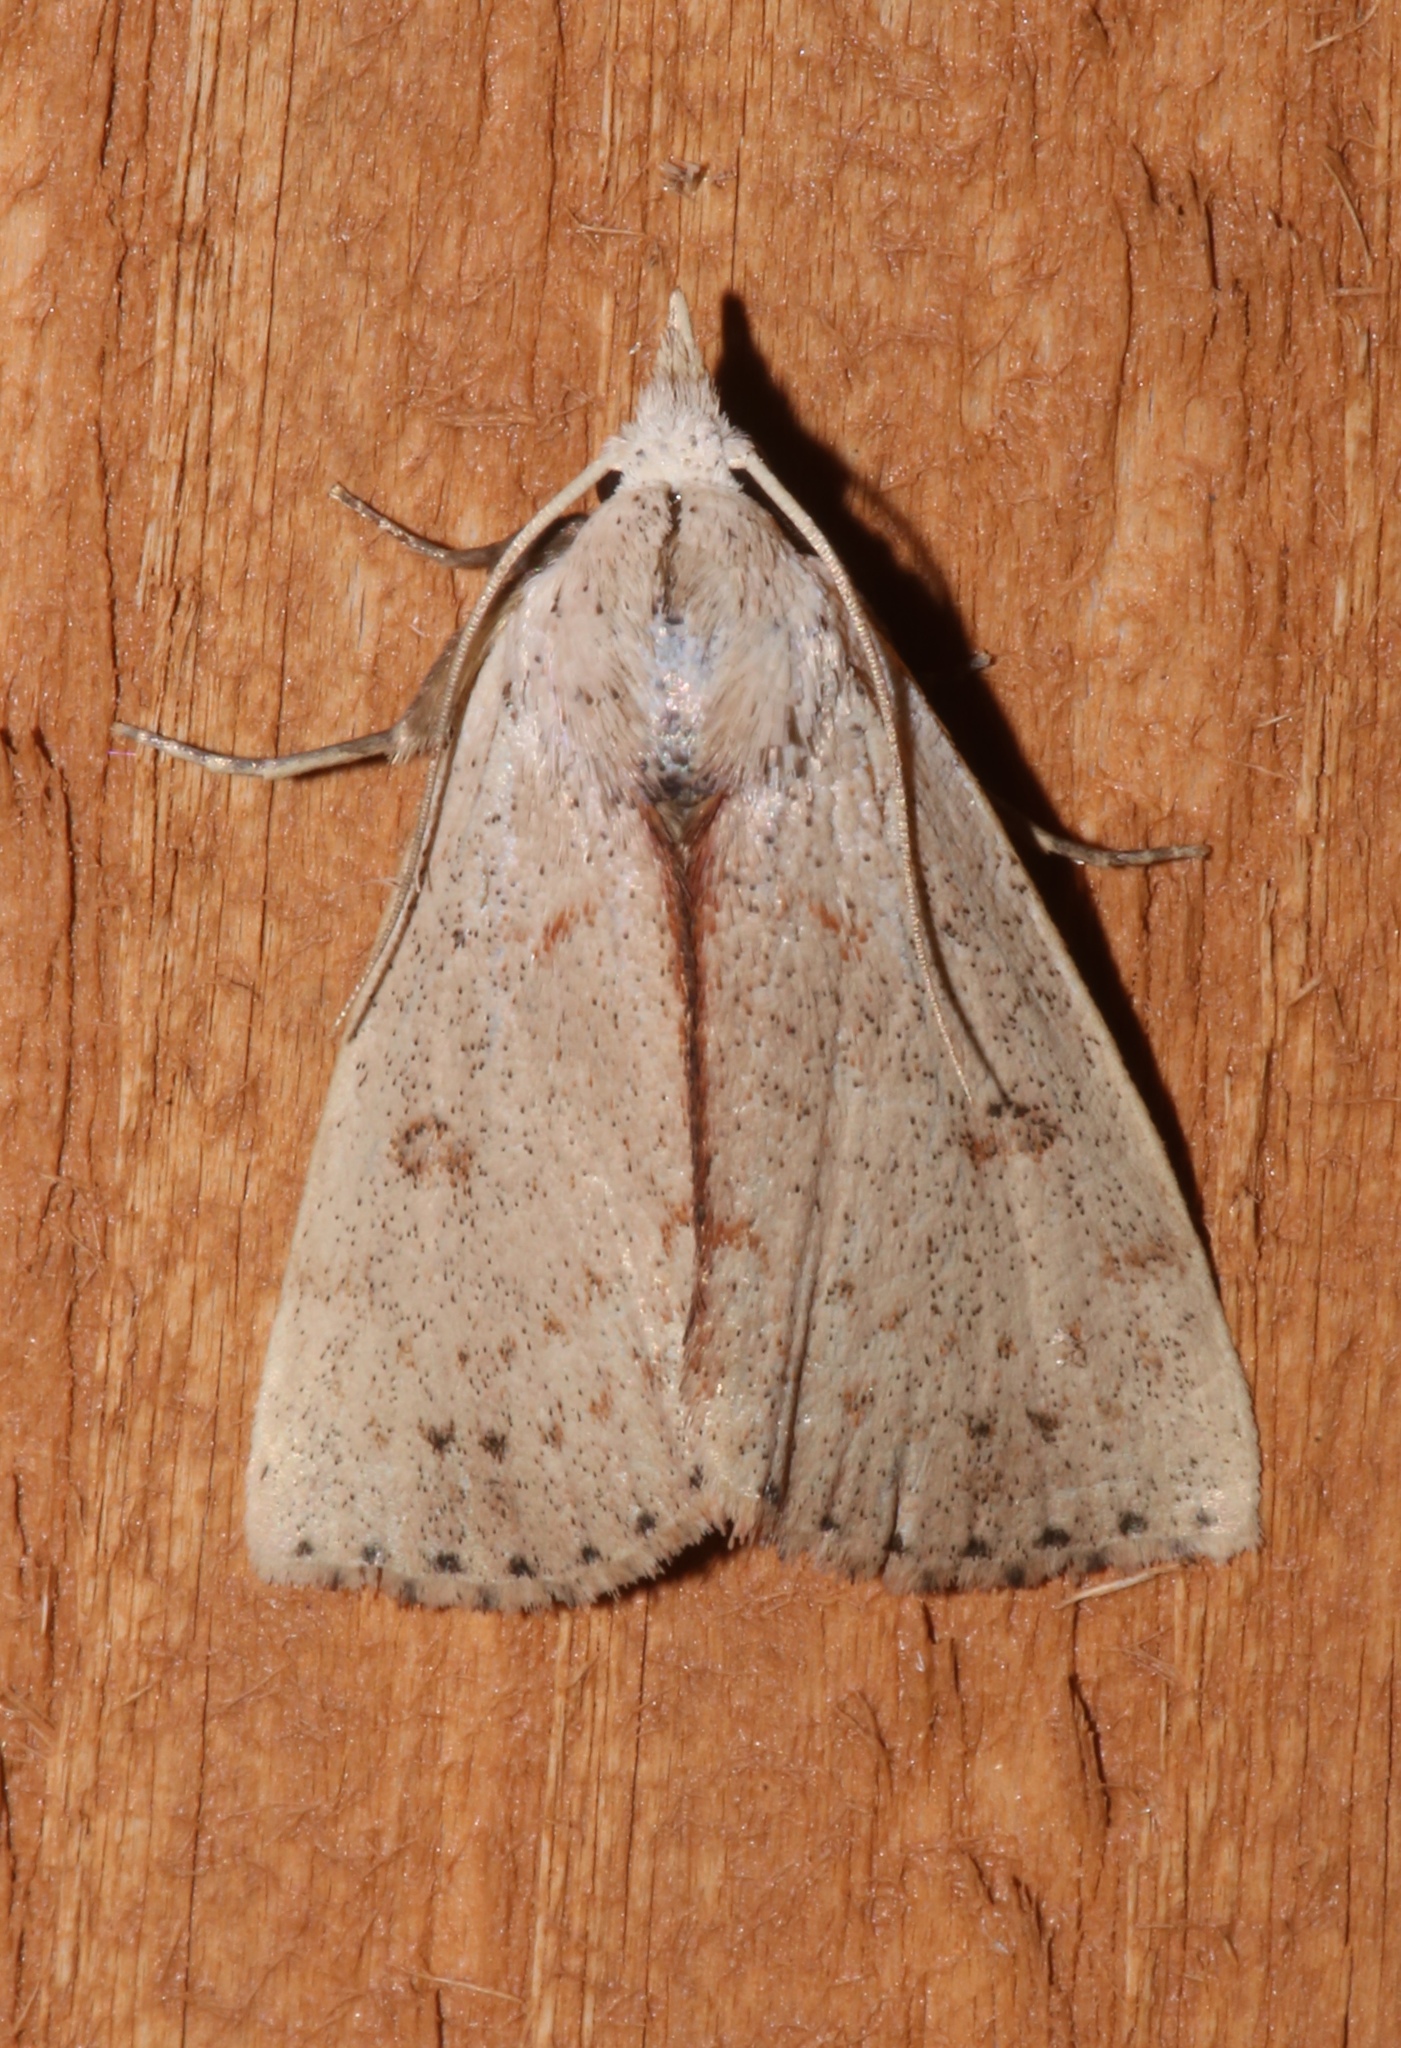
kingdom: Animalia
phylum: Arthropoda
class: Insecta
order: Lepidoptera
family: Erebidae
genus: Scolecocampa
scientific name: Scolecocampa liburna
